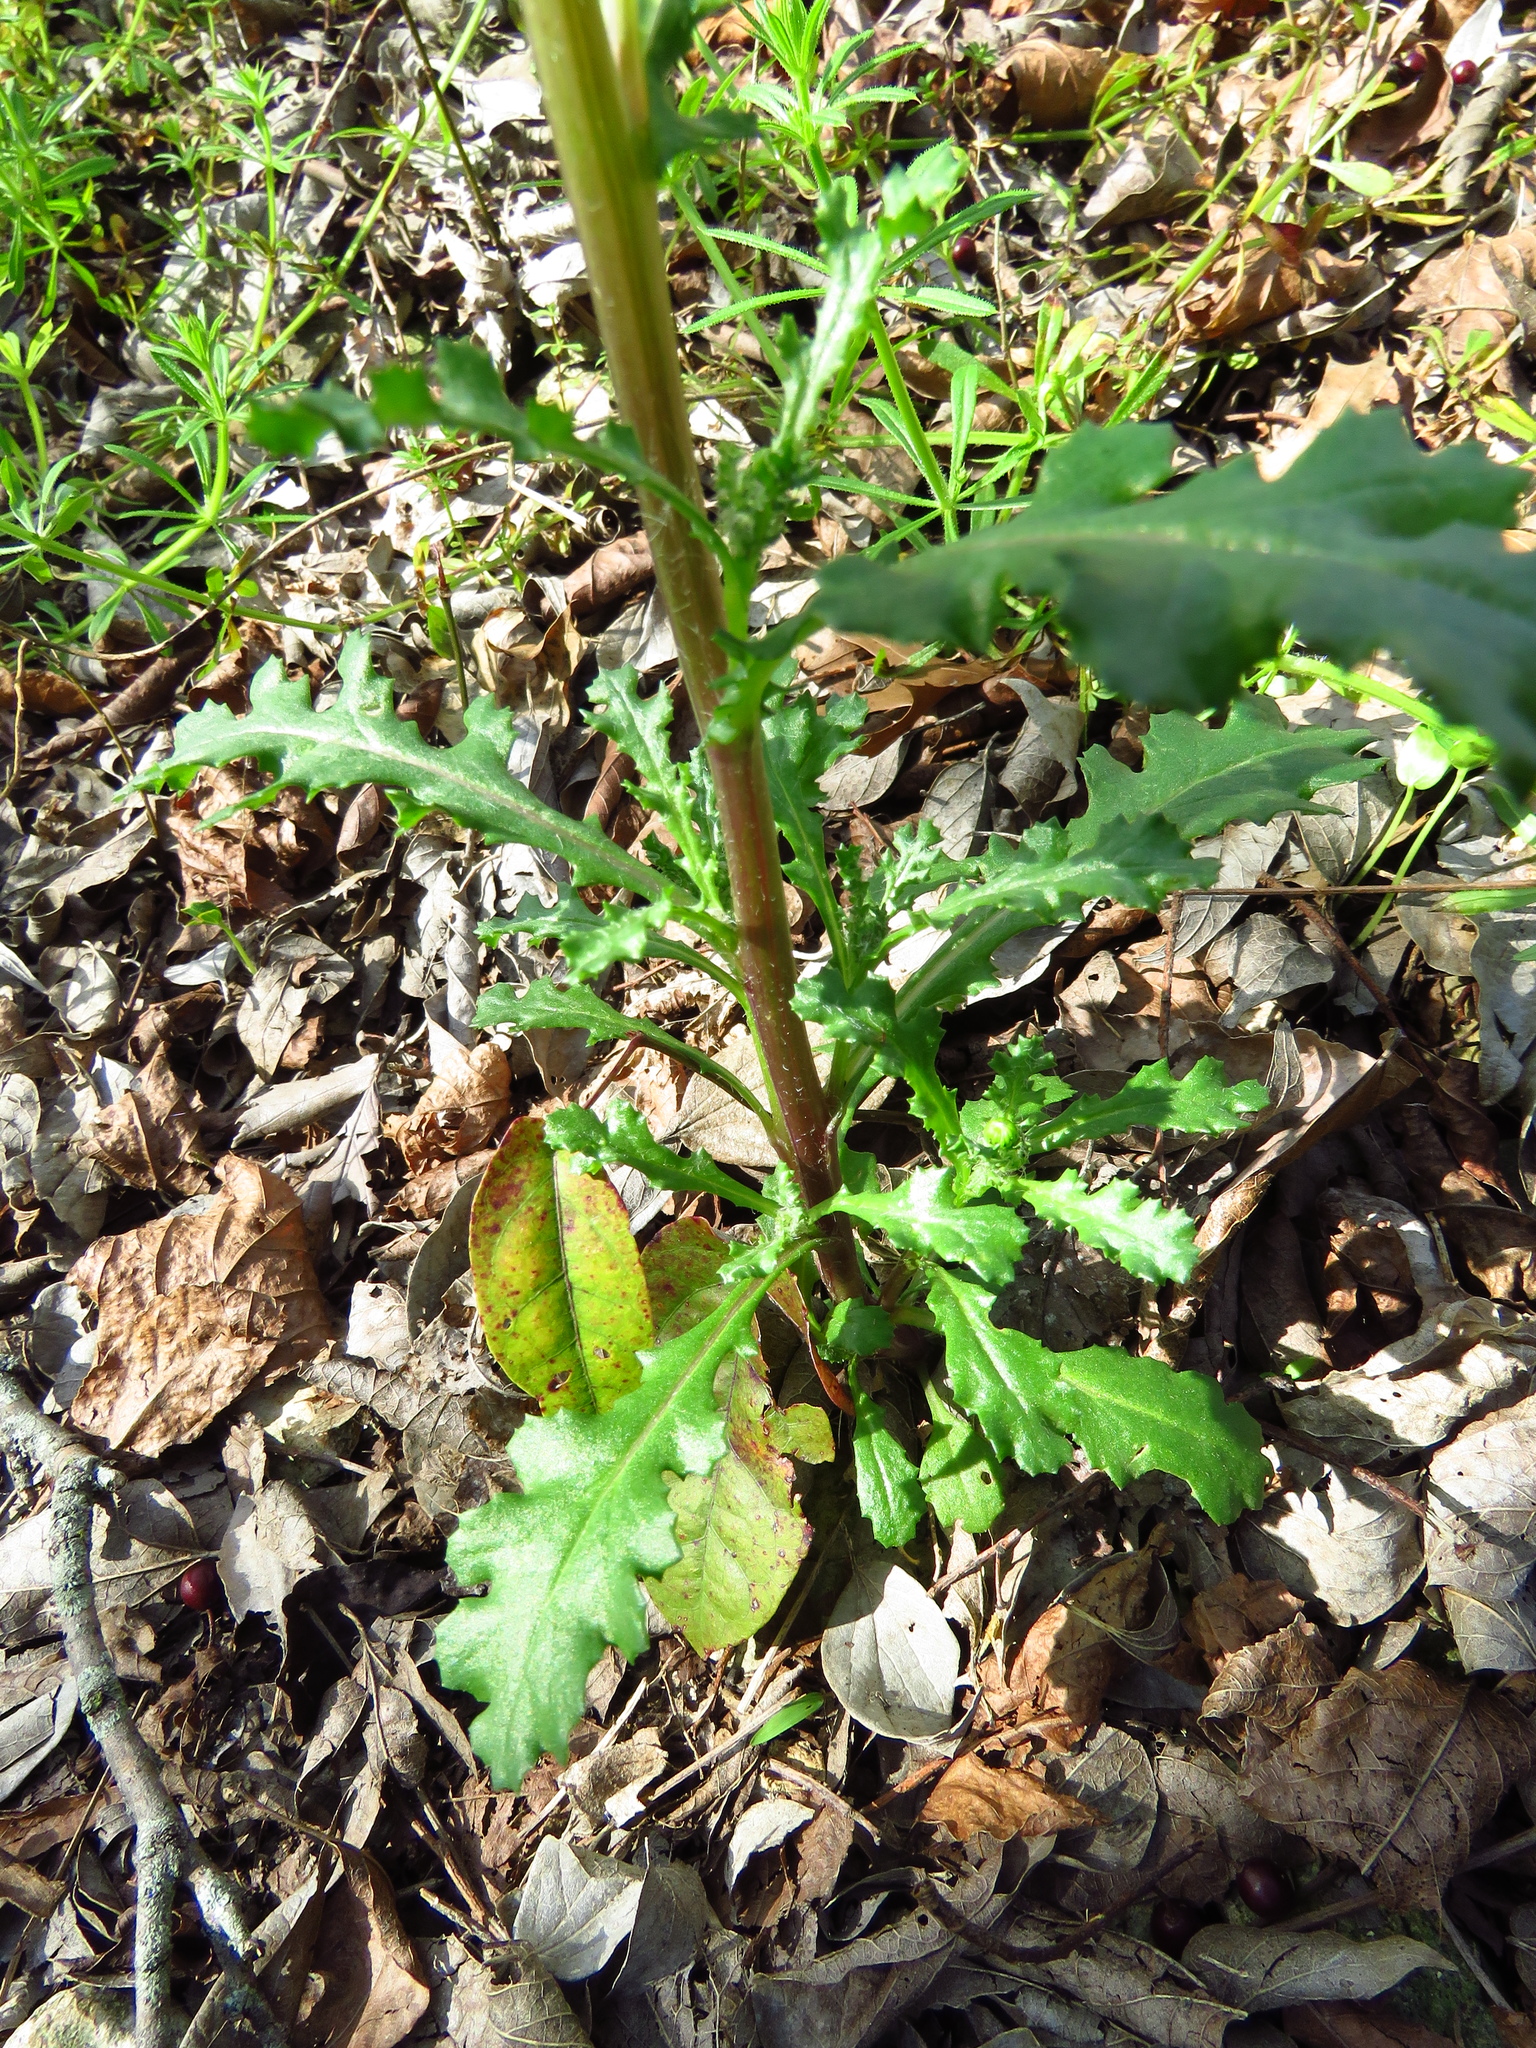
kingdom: Plantae
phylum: Tracheophyta
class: Magnoliopsida
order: Asterales
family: Asteraceae
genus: Senecio
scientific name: Senecio vulgaris
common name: Old-man-in-the-spring
